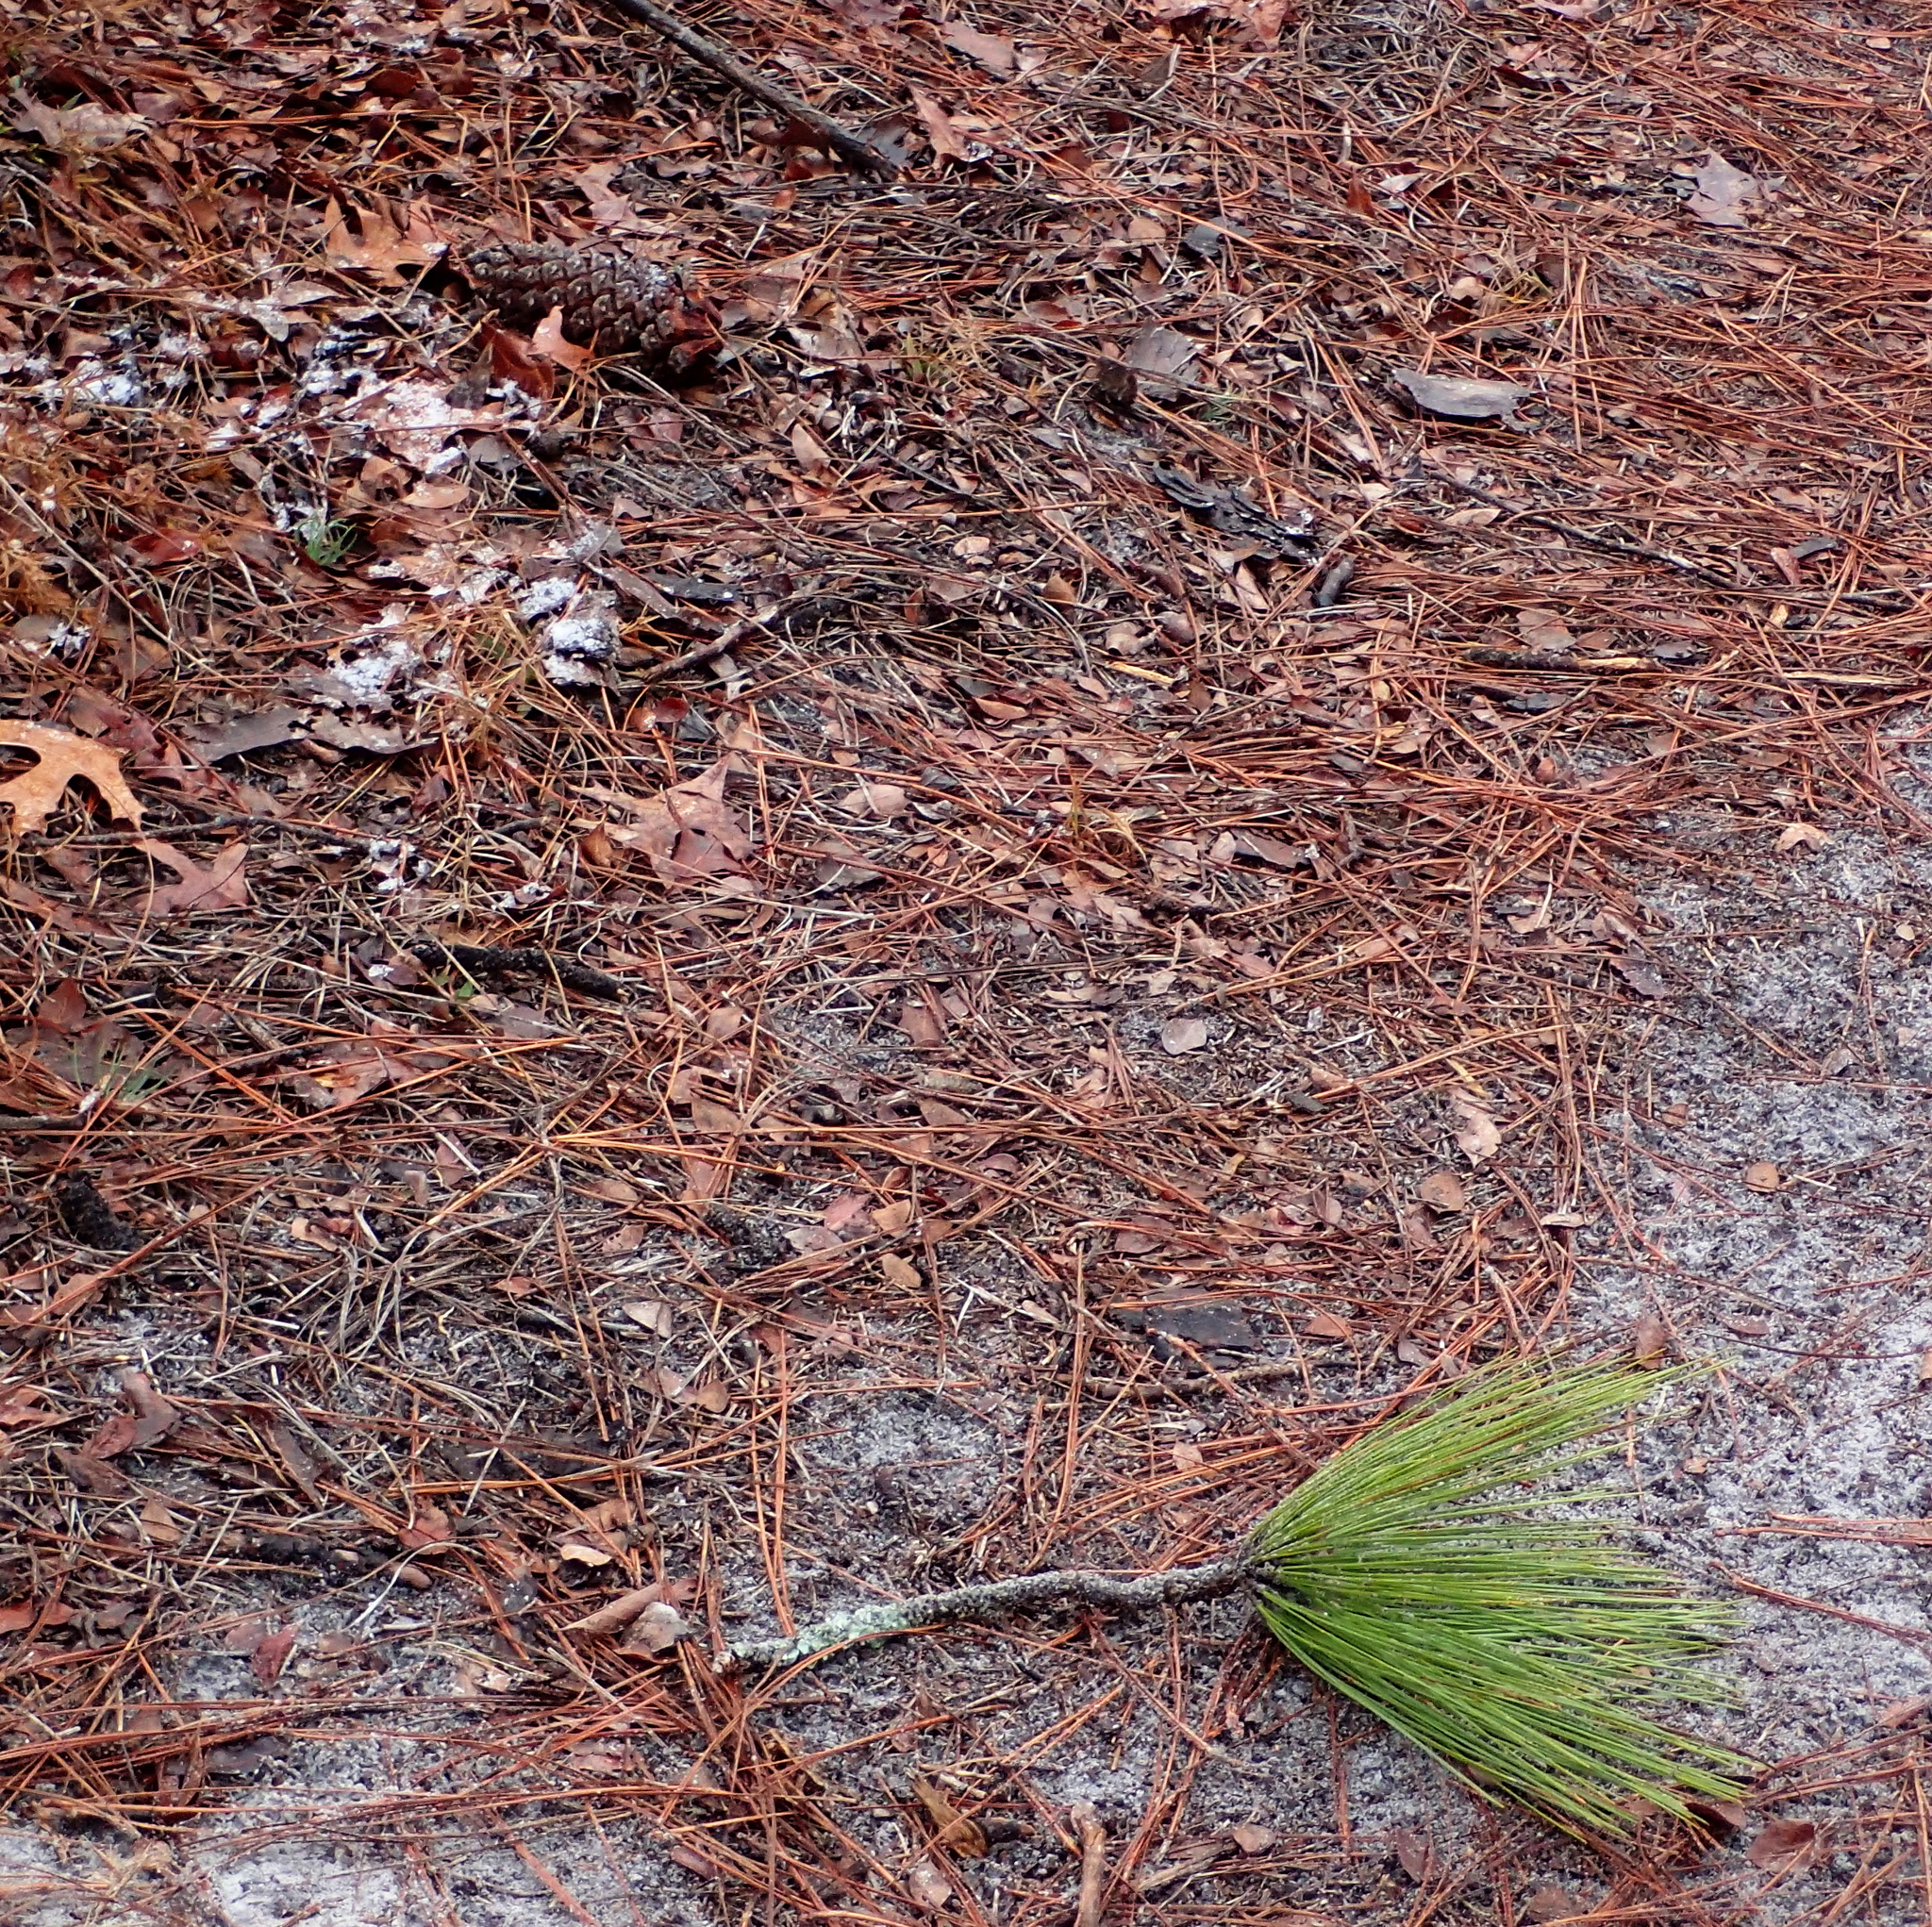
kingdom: Plantae
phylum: Tracheophyta
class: Pinopsida
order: Pinales
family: Pinaceae
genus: Pinus
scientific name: Pinus palustris
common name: Longleaf pine
